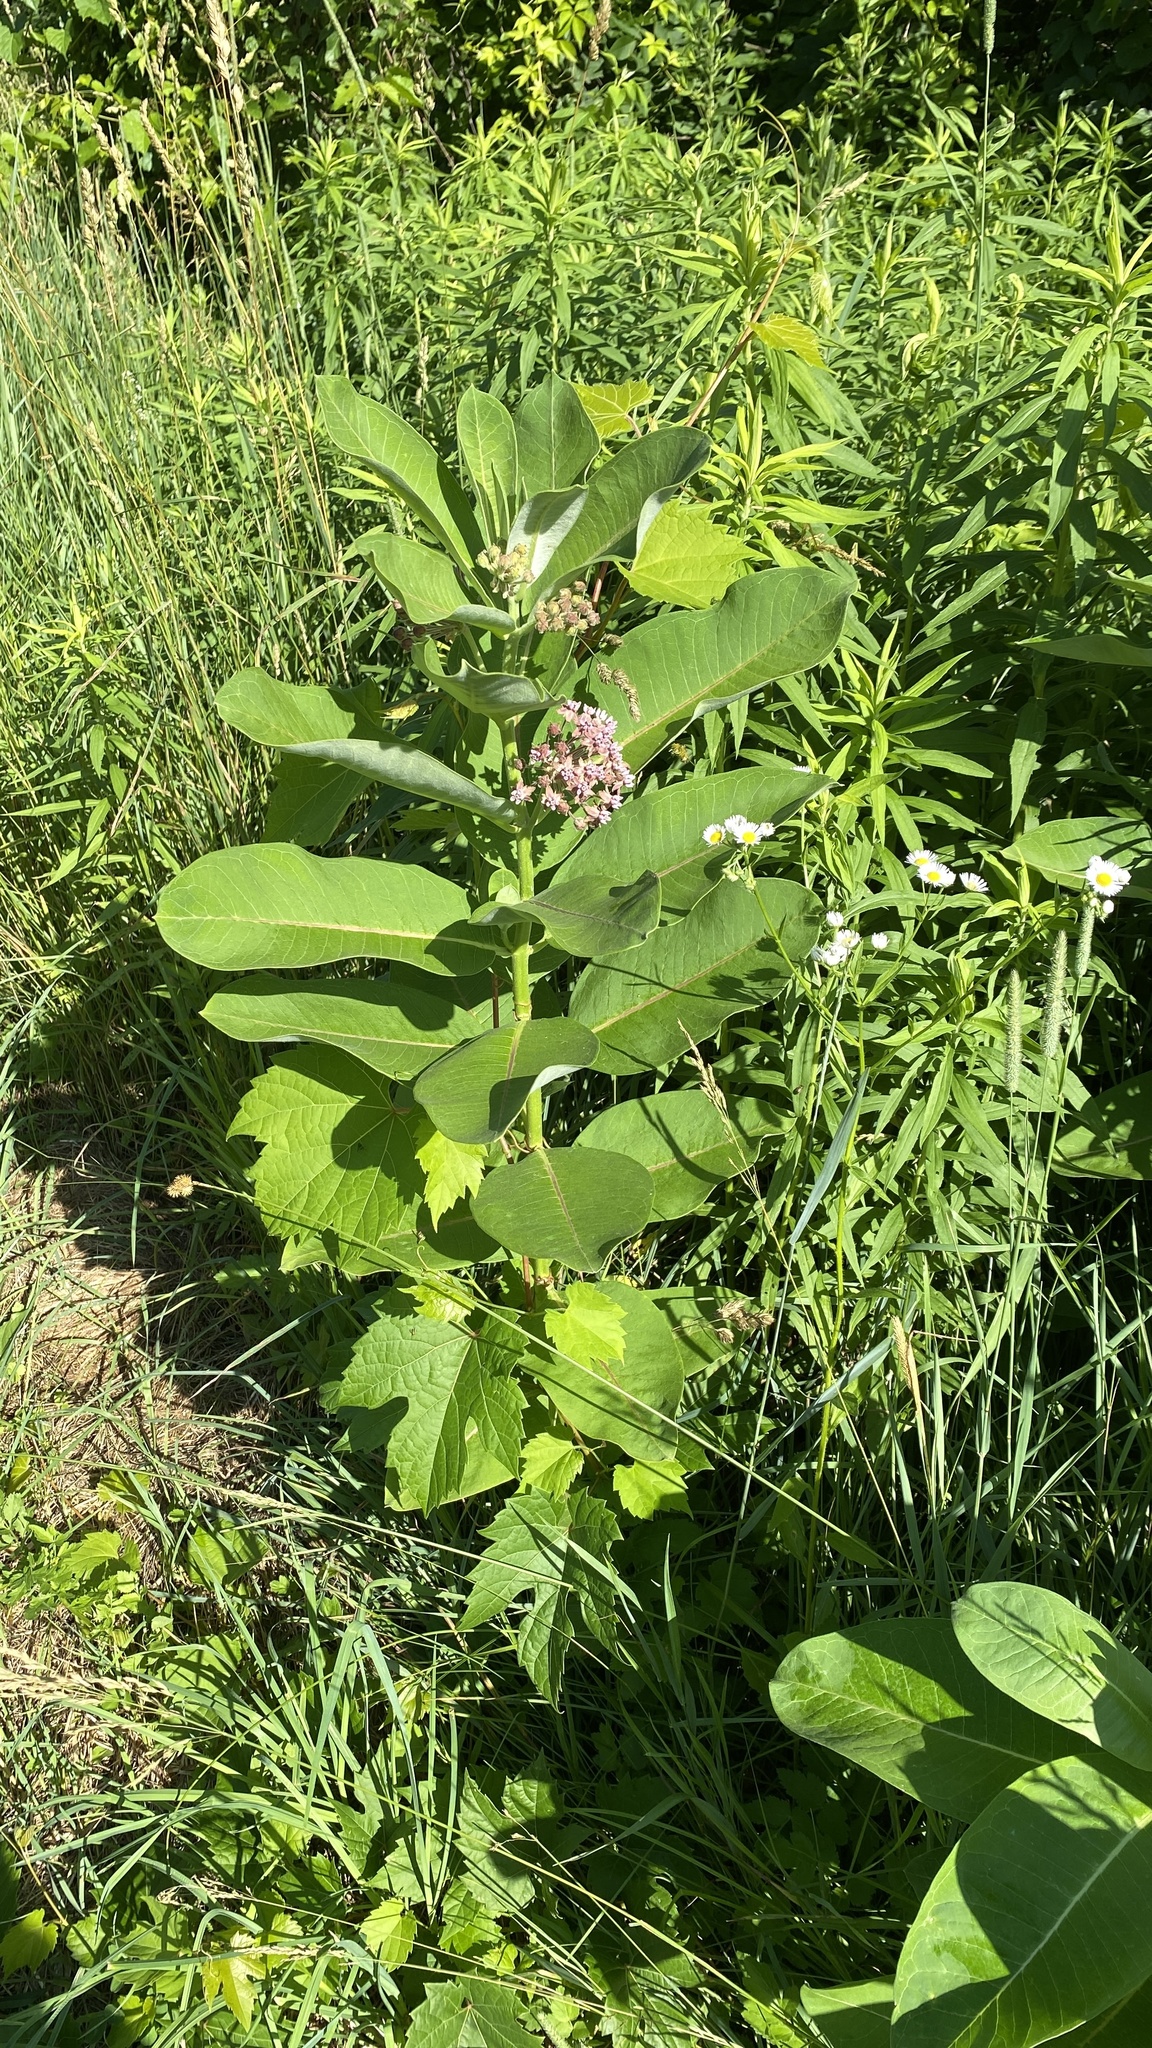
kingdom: Plantae
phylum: Tracheophyta
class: Magnoliopsida
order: Gentianales
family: Apocynaceae
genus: Asclepias
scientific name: Asclepias syriaca
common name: Common milkweed
